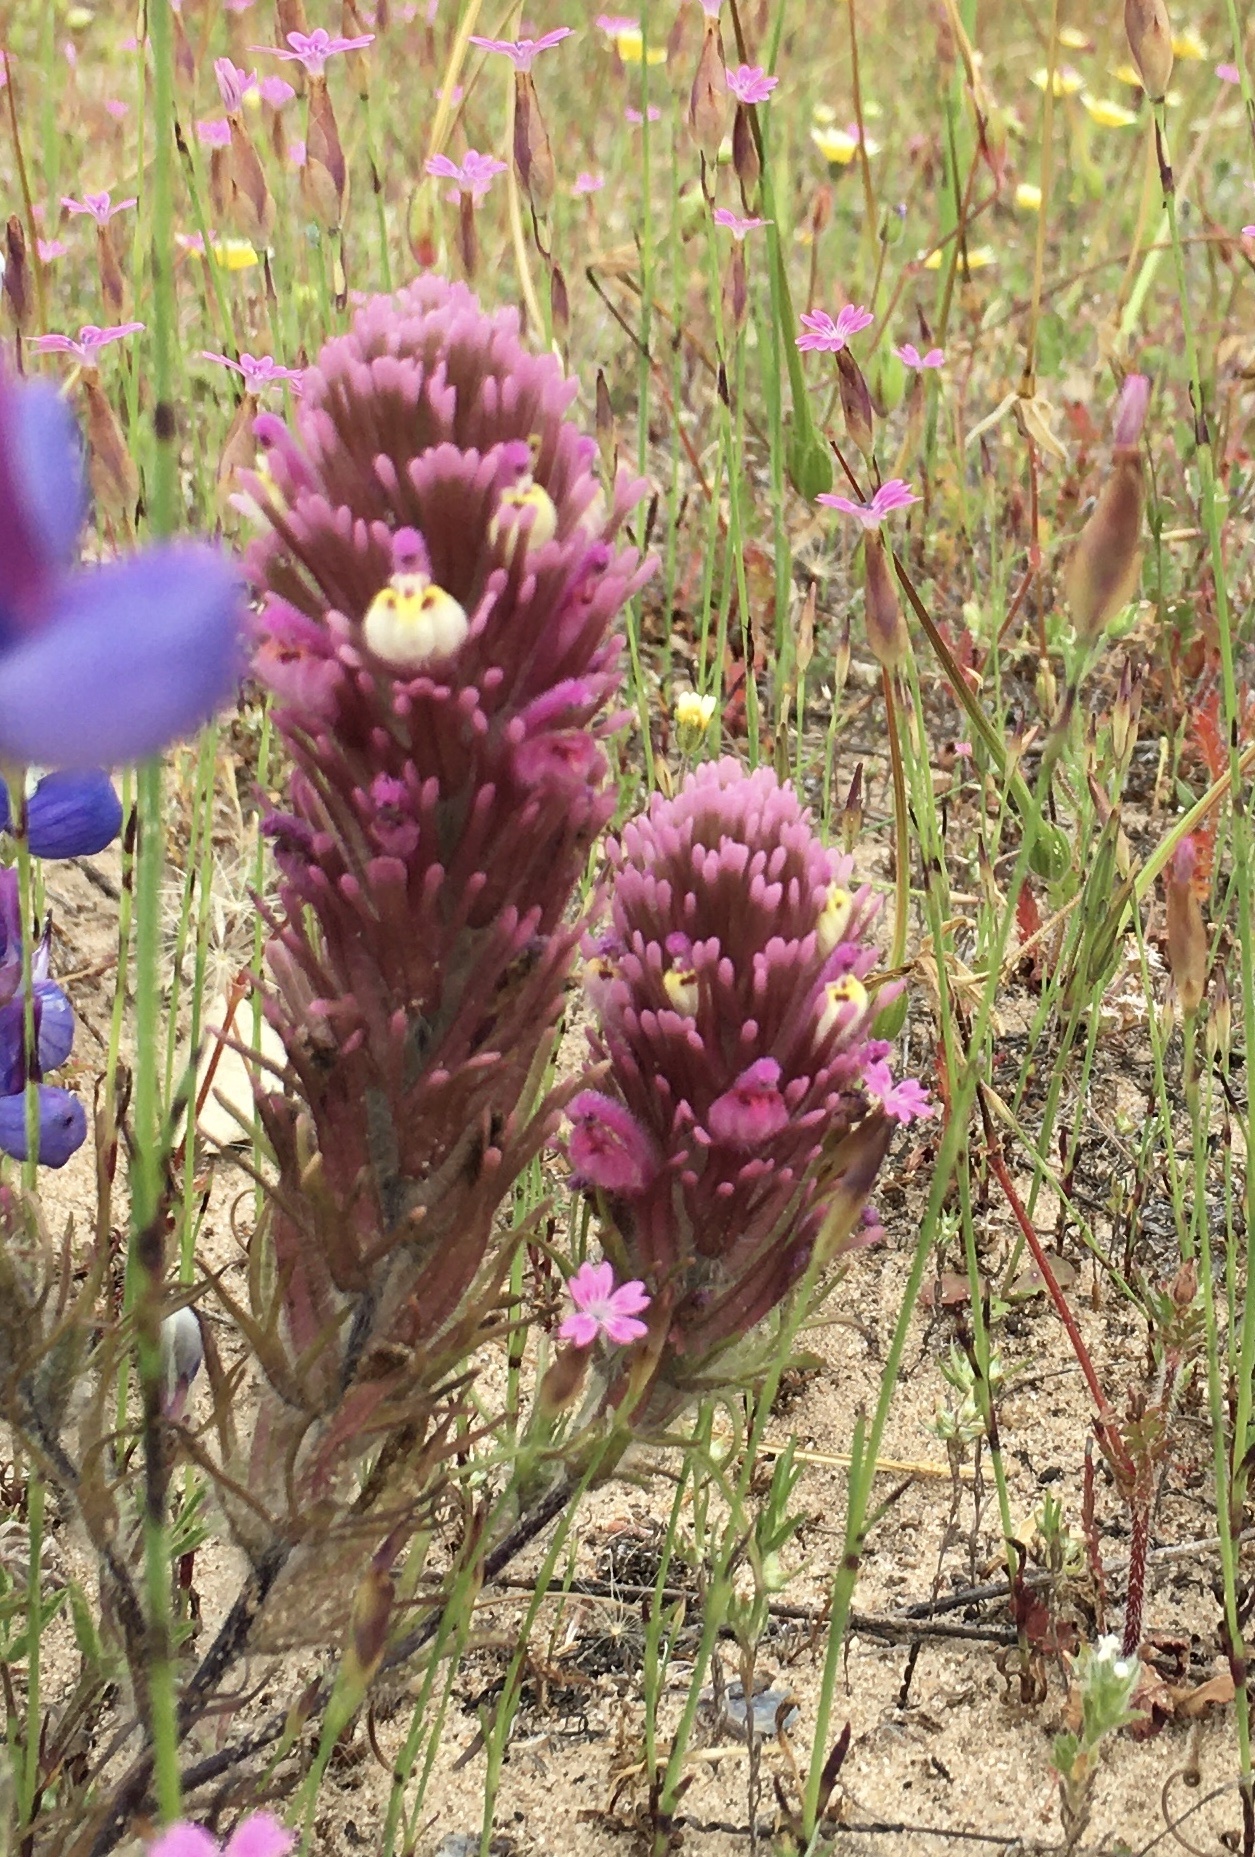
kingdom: Plantae
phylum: Tracheophyta
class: Magnoliopsida
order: Lamiales
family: Orobanchaceae
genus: Castilleja
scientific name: Castilleja exserta
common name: Purple owl-clover
